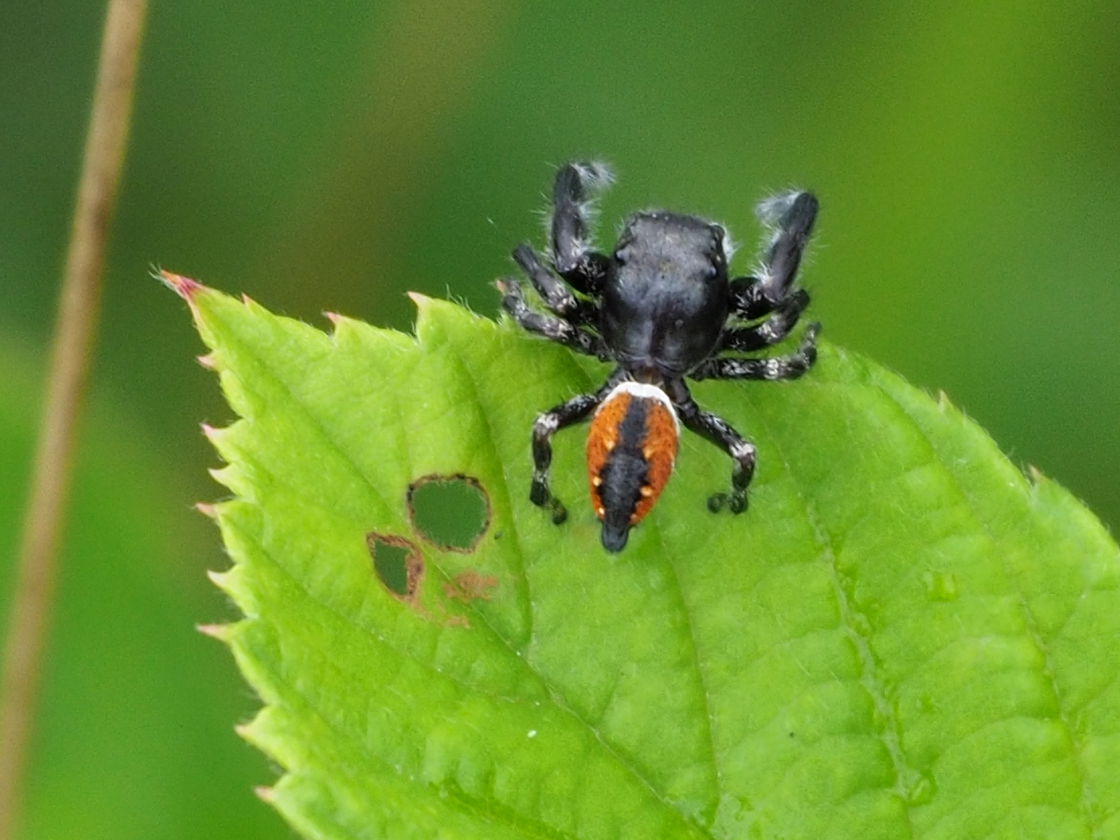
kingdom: Animalia
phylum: Arthropoda
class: Arachnida
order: Araneae
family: Salticidae
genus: Phidippus
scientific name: Phidippus clarus
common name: Brilliant jumping spider
